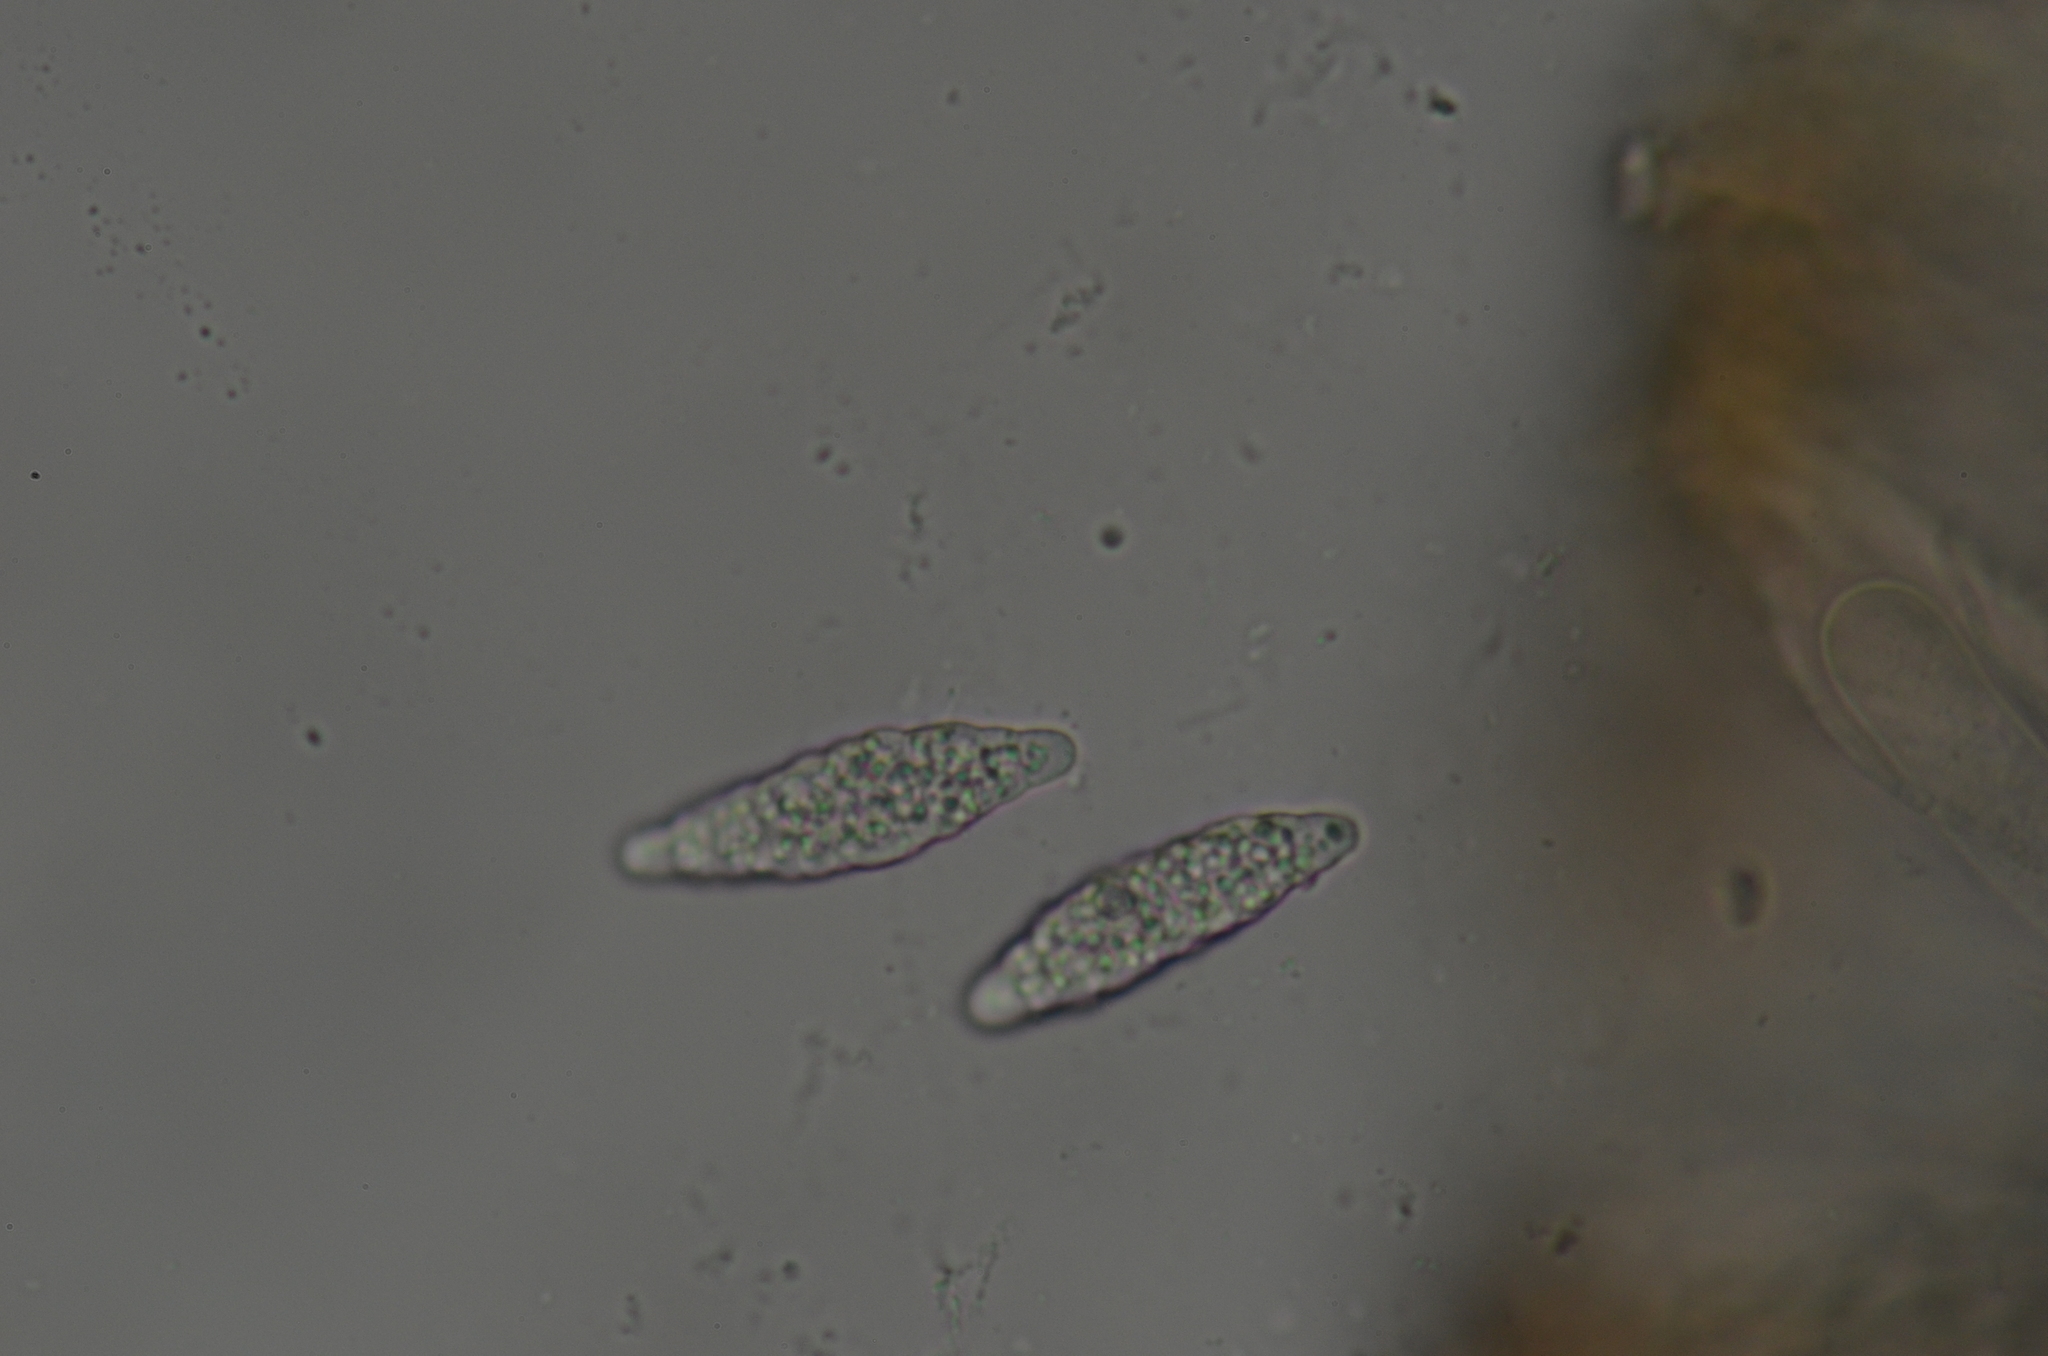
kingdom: Fungi
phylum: Ascomycota
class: Lecanoromycetes
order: Peltigerales
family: Collemataceae
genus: Scytinium
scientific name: Scytinium platynum
